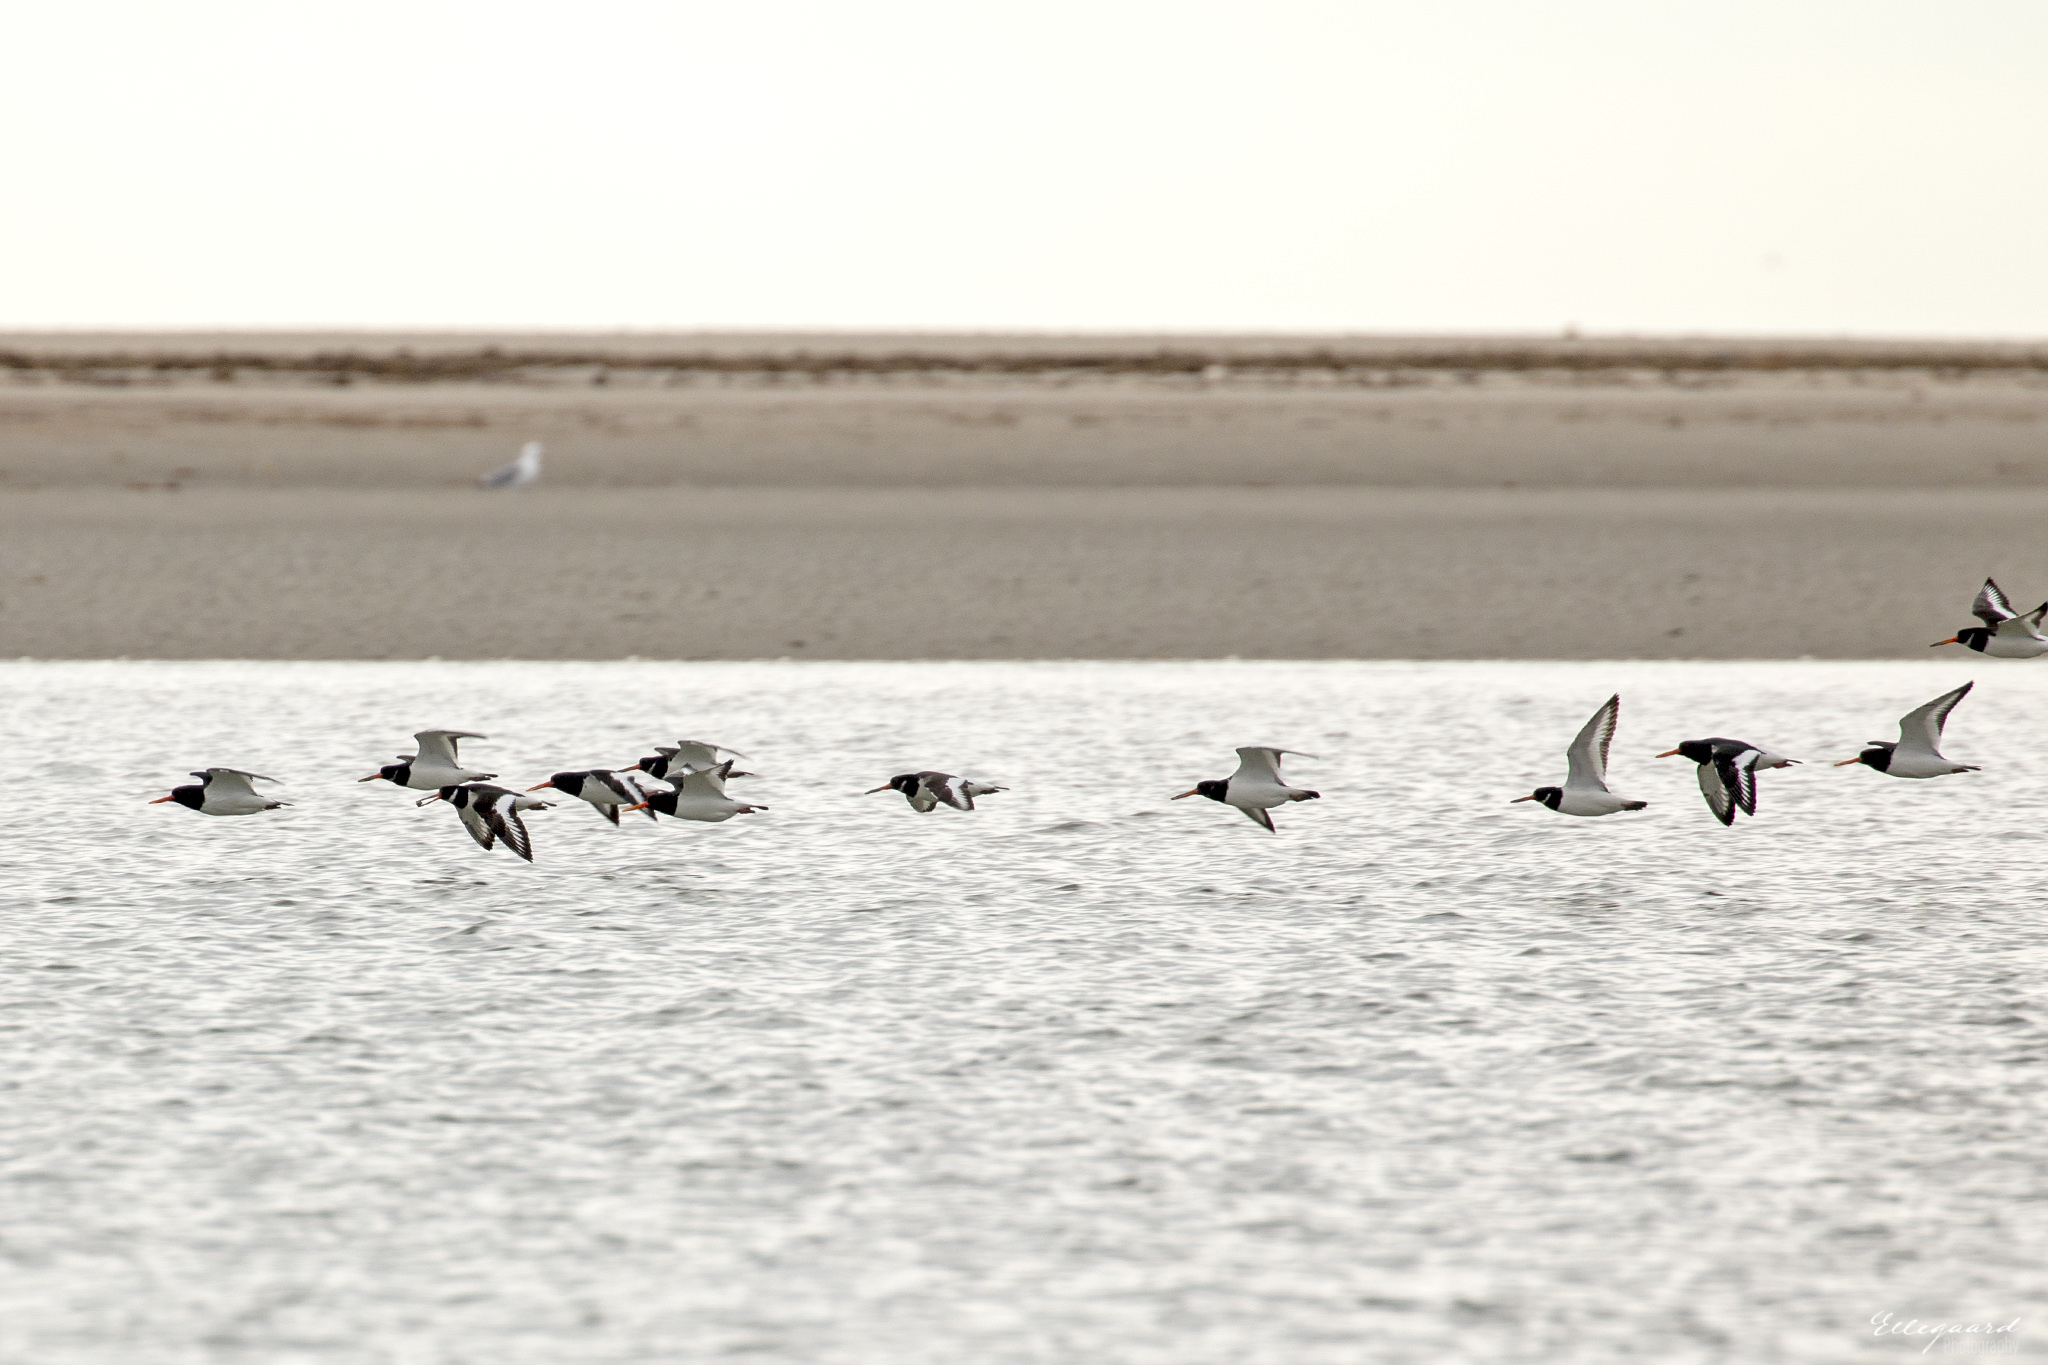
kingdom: Animalia
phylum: Chordata
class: Aves
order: Charadriiformes
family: Haematopodidae
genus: Haematopus
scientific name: Haematopus ostralegus
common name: Eurasian oystercatcher
